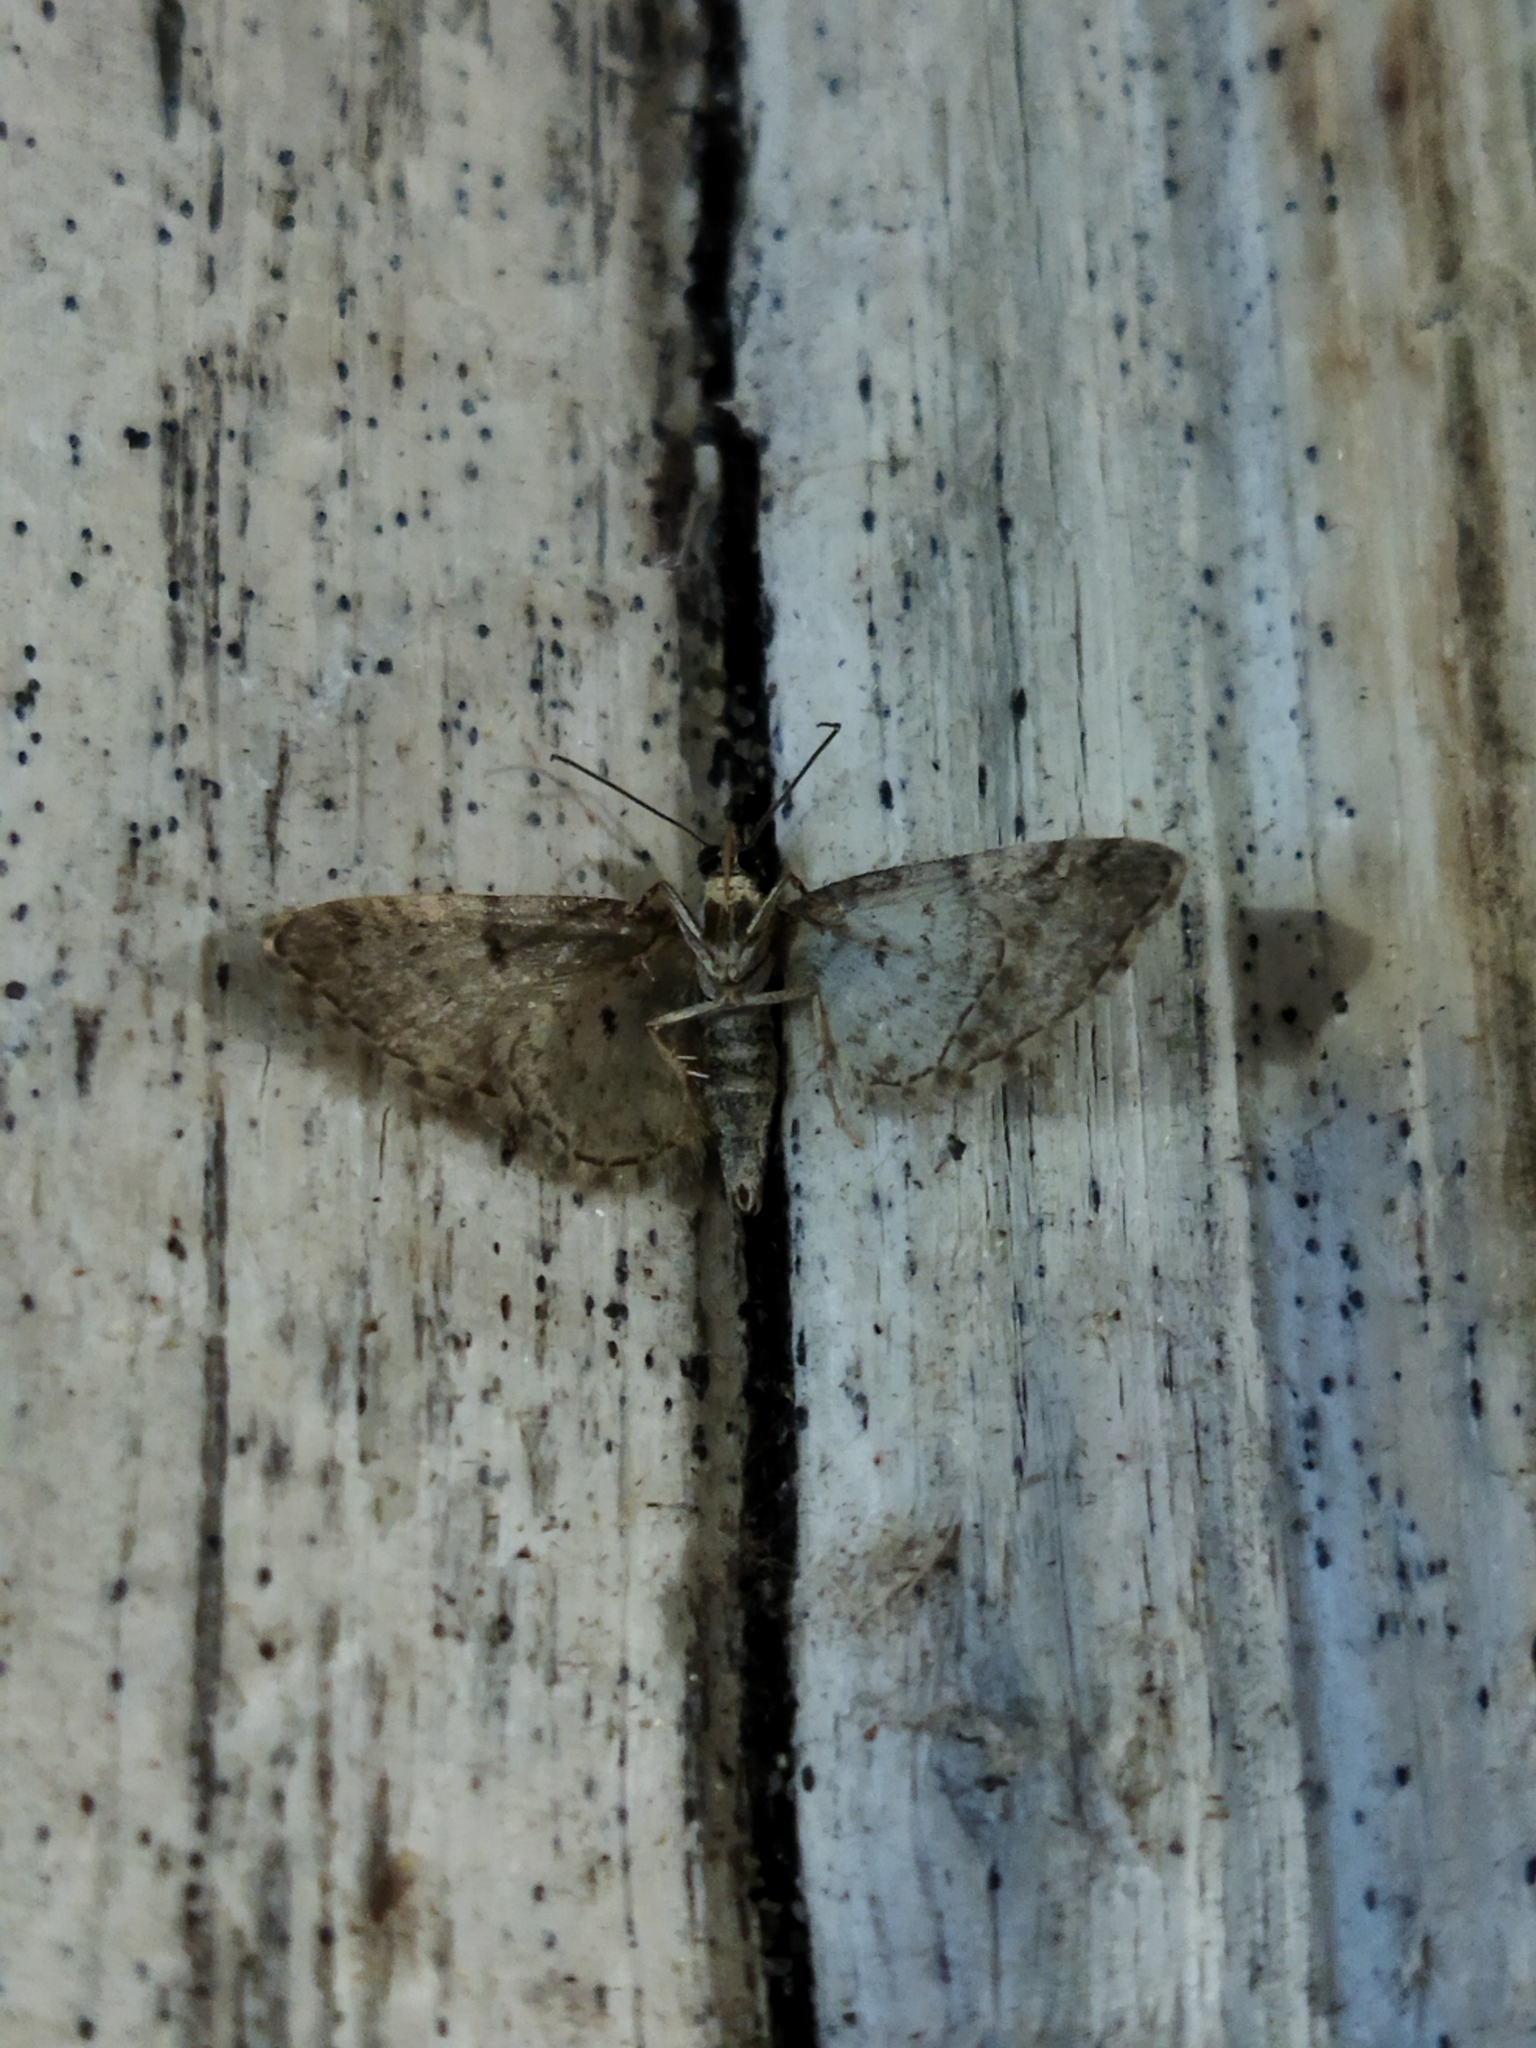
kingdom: Animalia
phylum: Arthropoda
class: Insecta
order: Lepidoptera
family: Geometridae
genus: Eupithecia
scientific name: Eupithecia dodoneata
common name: Oak-tree pug
